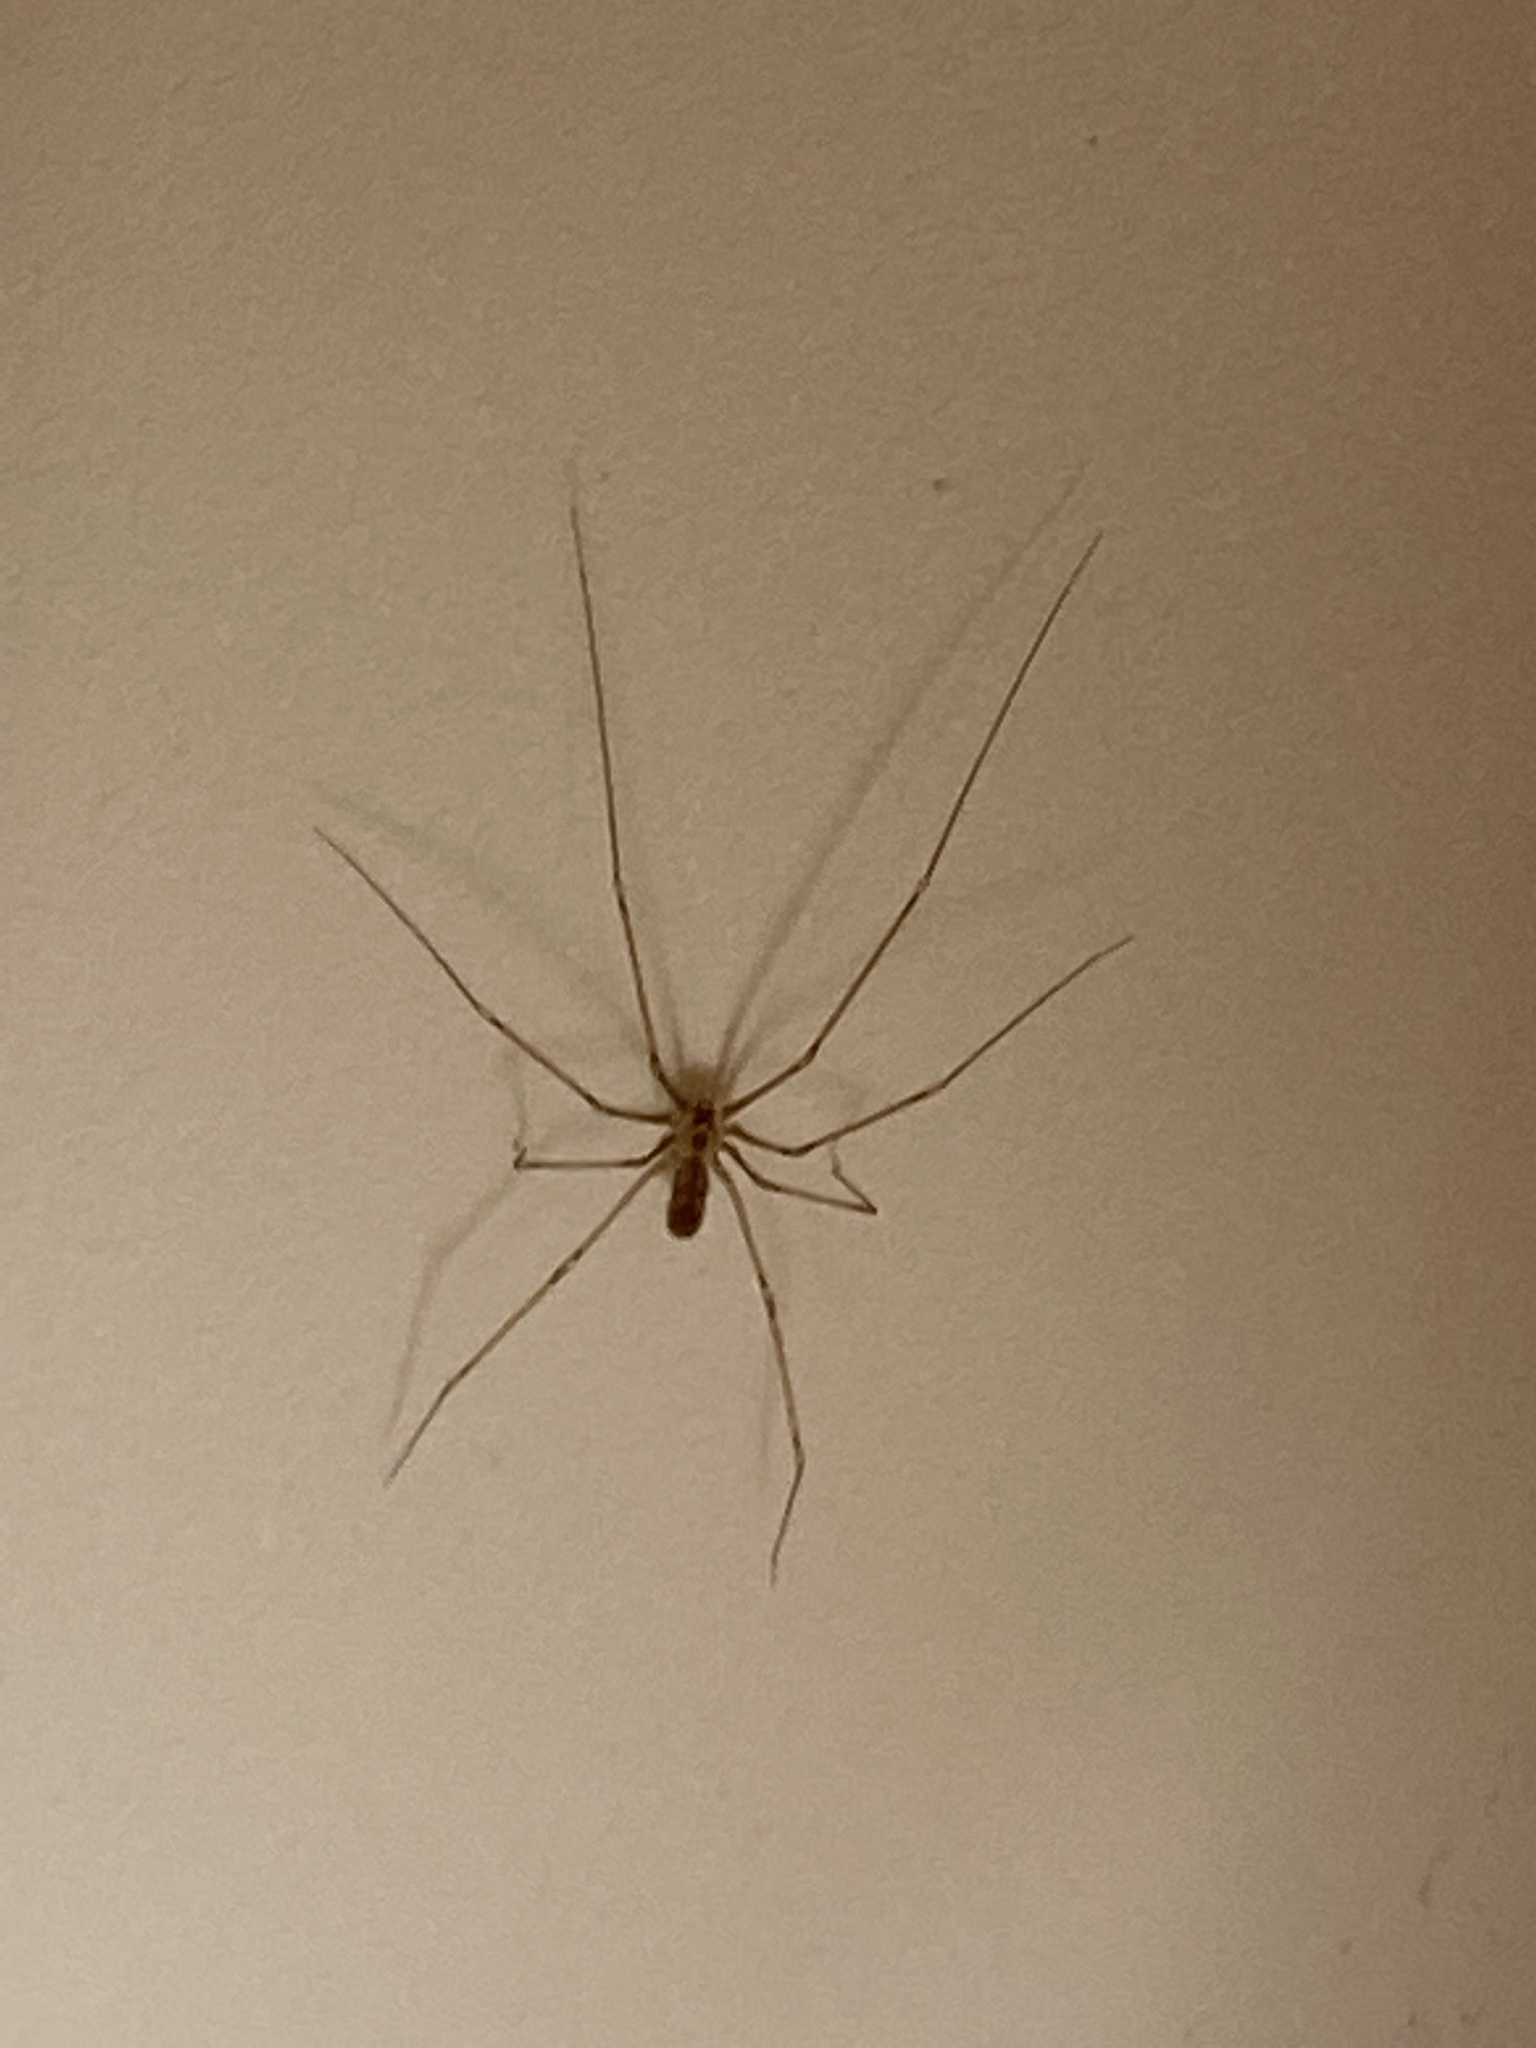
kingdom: Animalia
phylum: Arthropoda
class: Arachnida
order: Araneae
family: Pholcidae
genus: Pholcus
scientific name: Pholcus phalangioides
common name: Longbodied cellar spider
